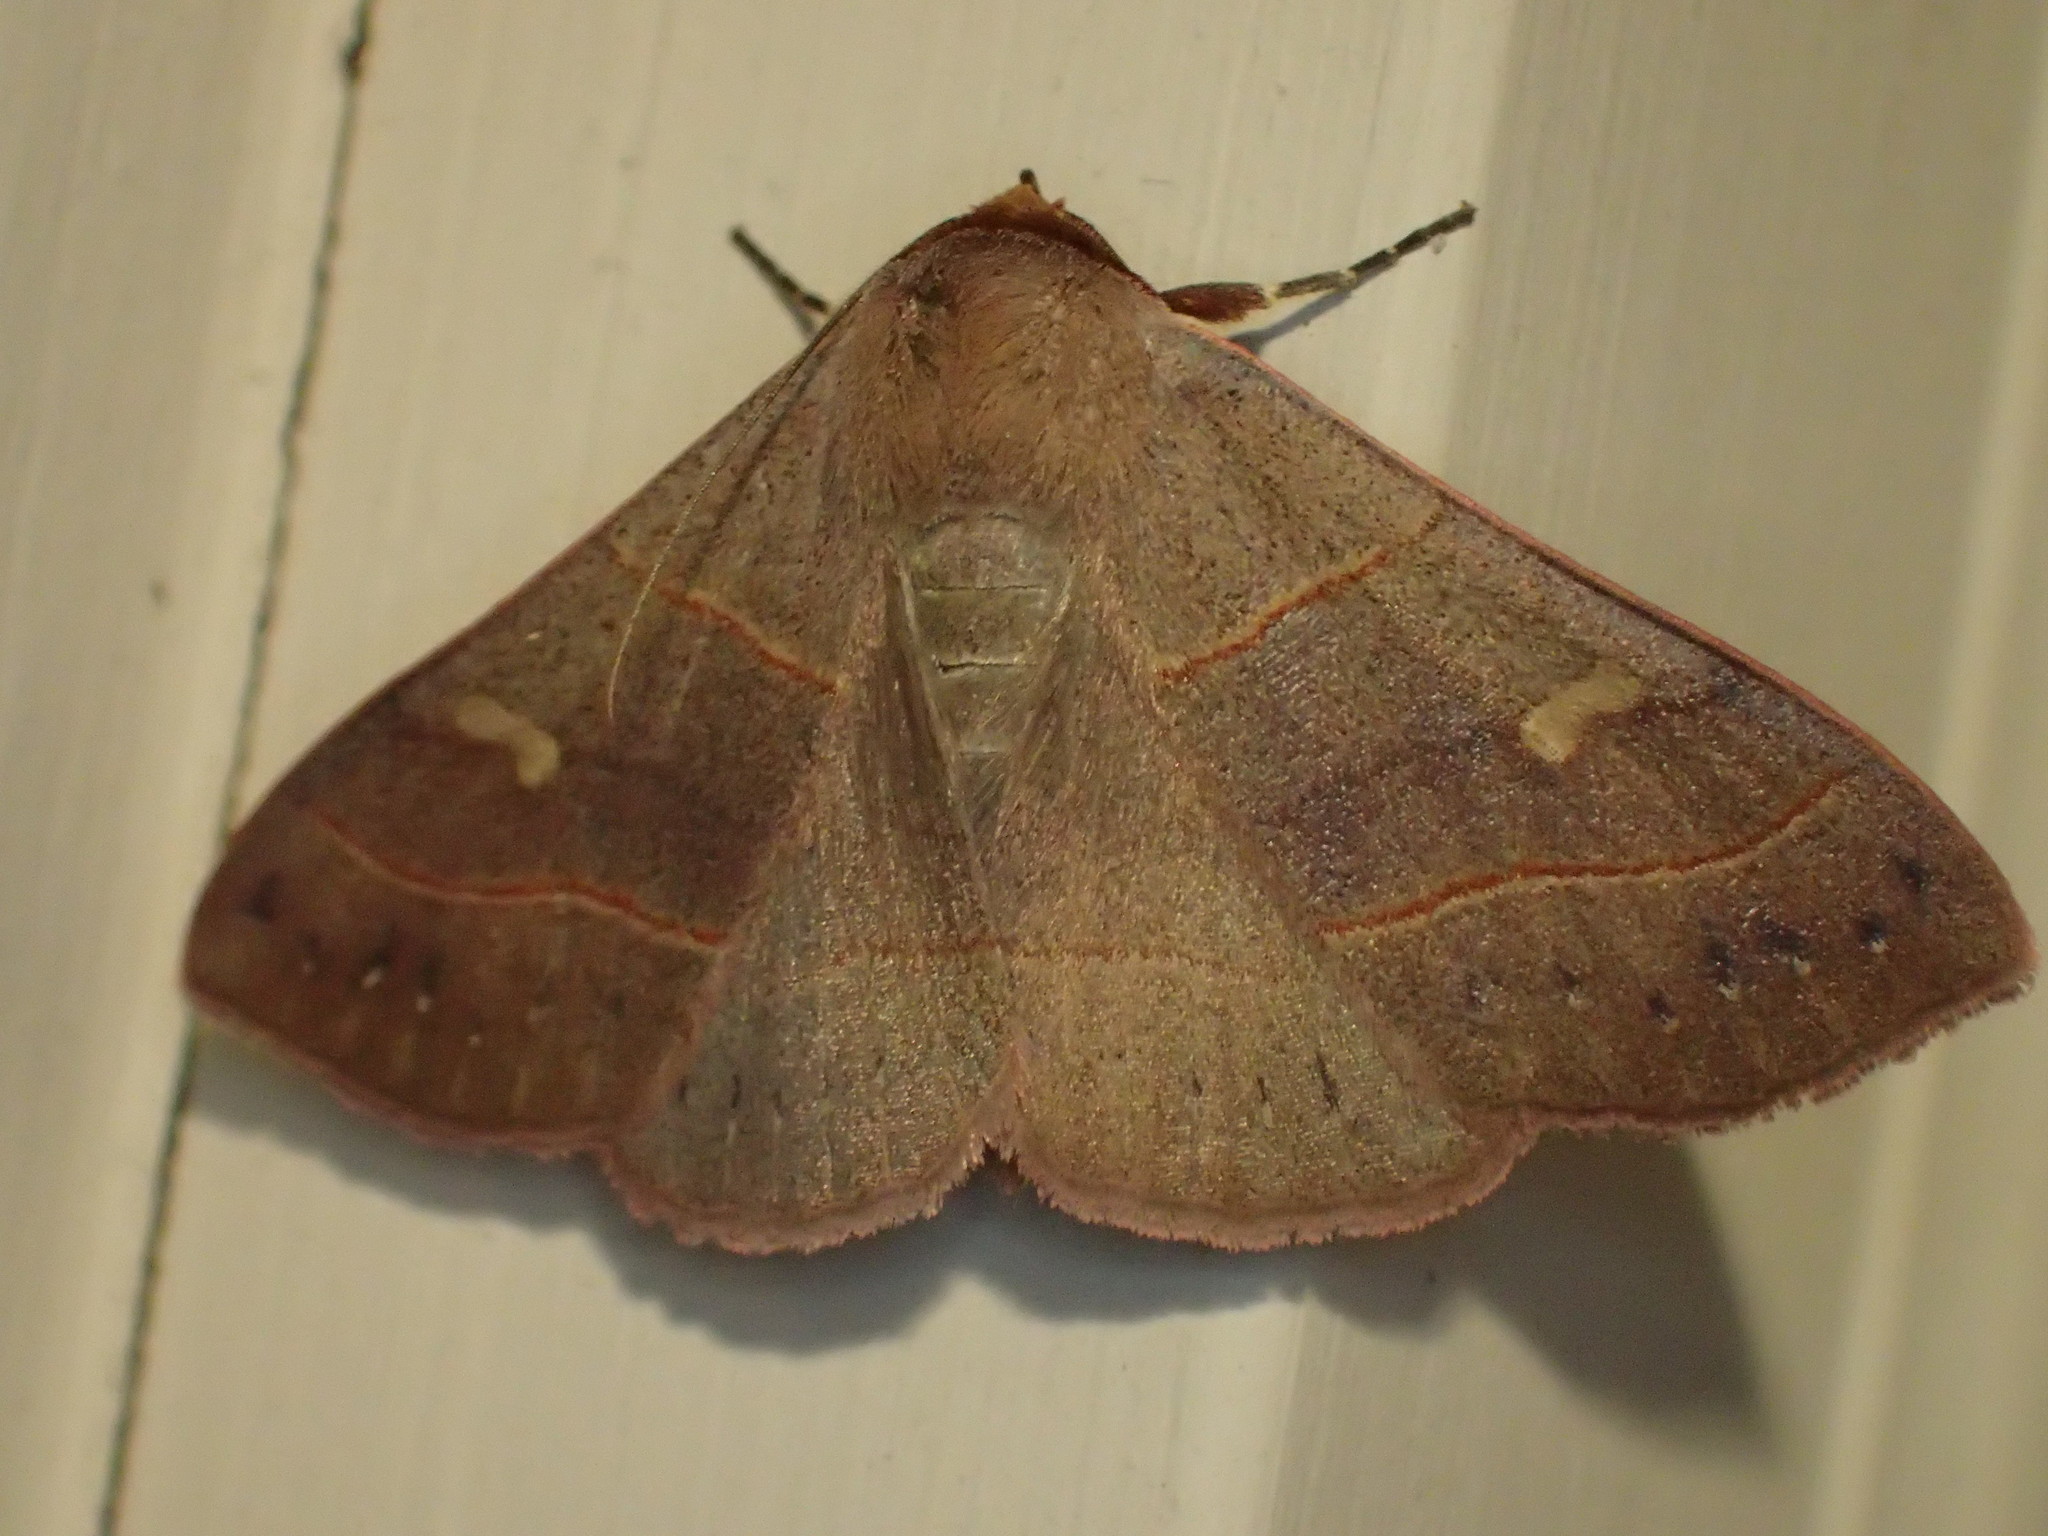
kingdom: Animalia
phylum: Arthropoda
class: Insecta
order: Lepidoptera
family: Erebidae
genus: Panopoda
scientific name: Panopoda rufimargo
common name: Red-lined panopoda moth
